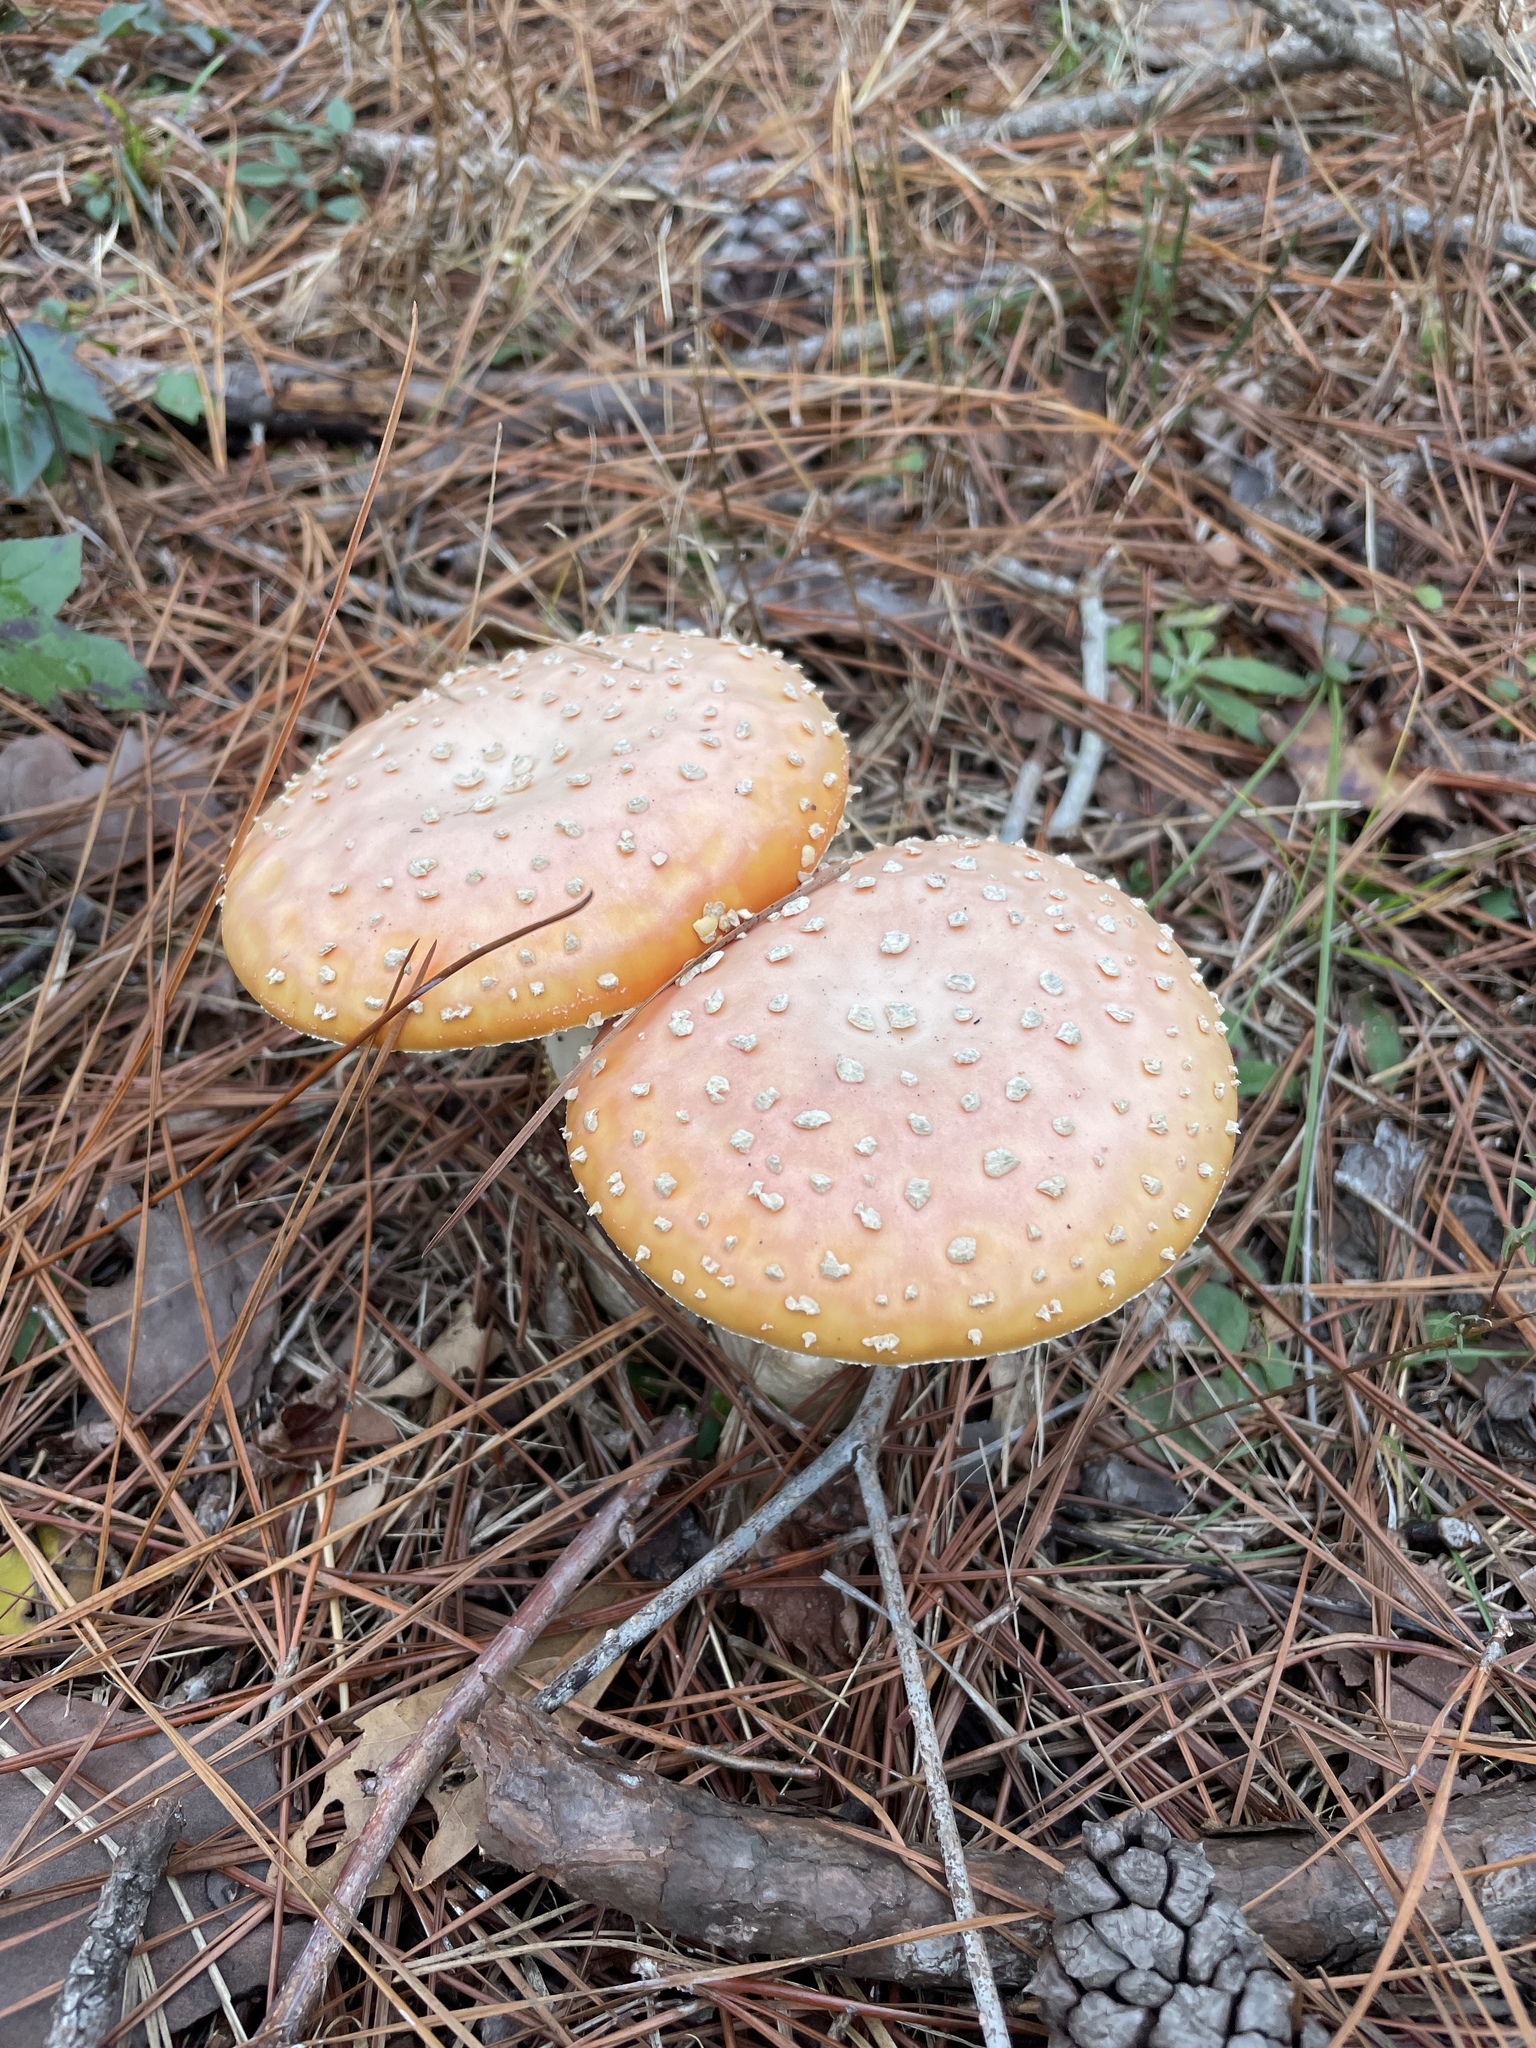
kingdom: Fungi
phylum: Basidiomycota
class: Agaricomycetes
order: Agaricales
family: Amanitaceae
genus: Amanita
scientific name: Amanita persicina
